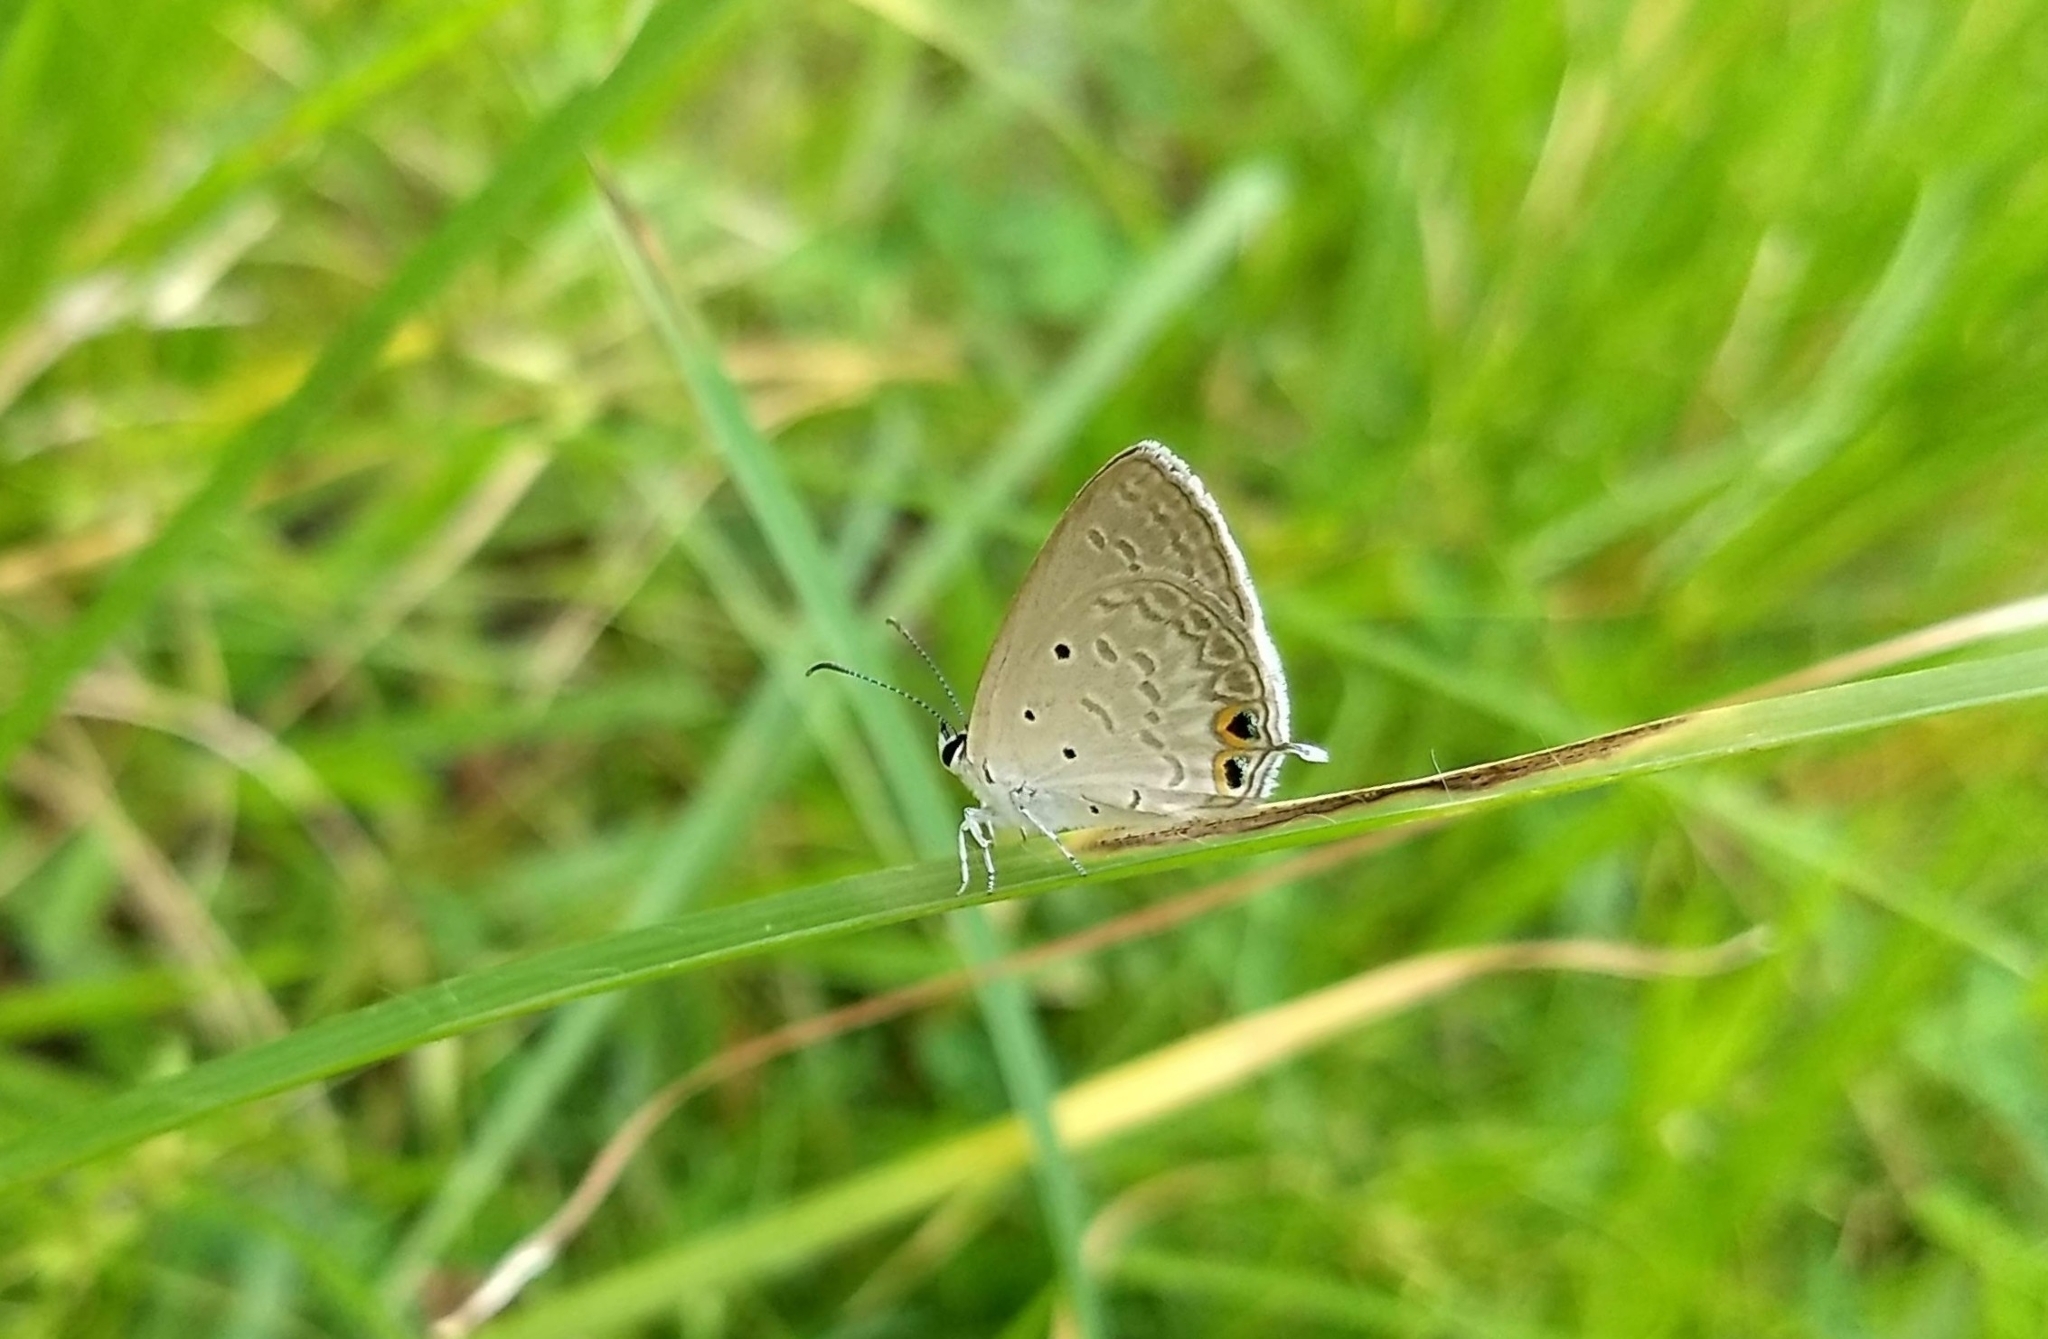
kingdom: Animalia
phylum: Arthropoda
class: Insecta
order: Lepidoptera
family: Lycaenidae
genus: Euchrysops
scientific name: Euchrysops cnejus
